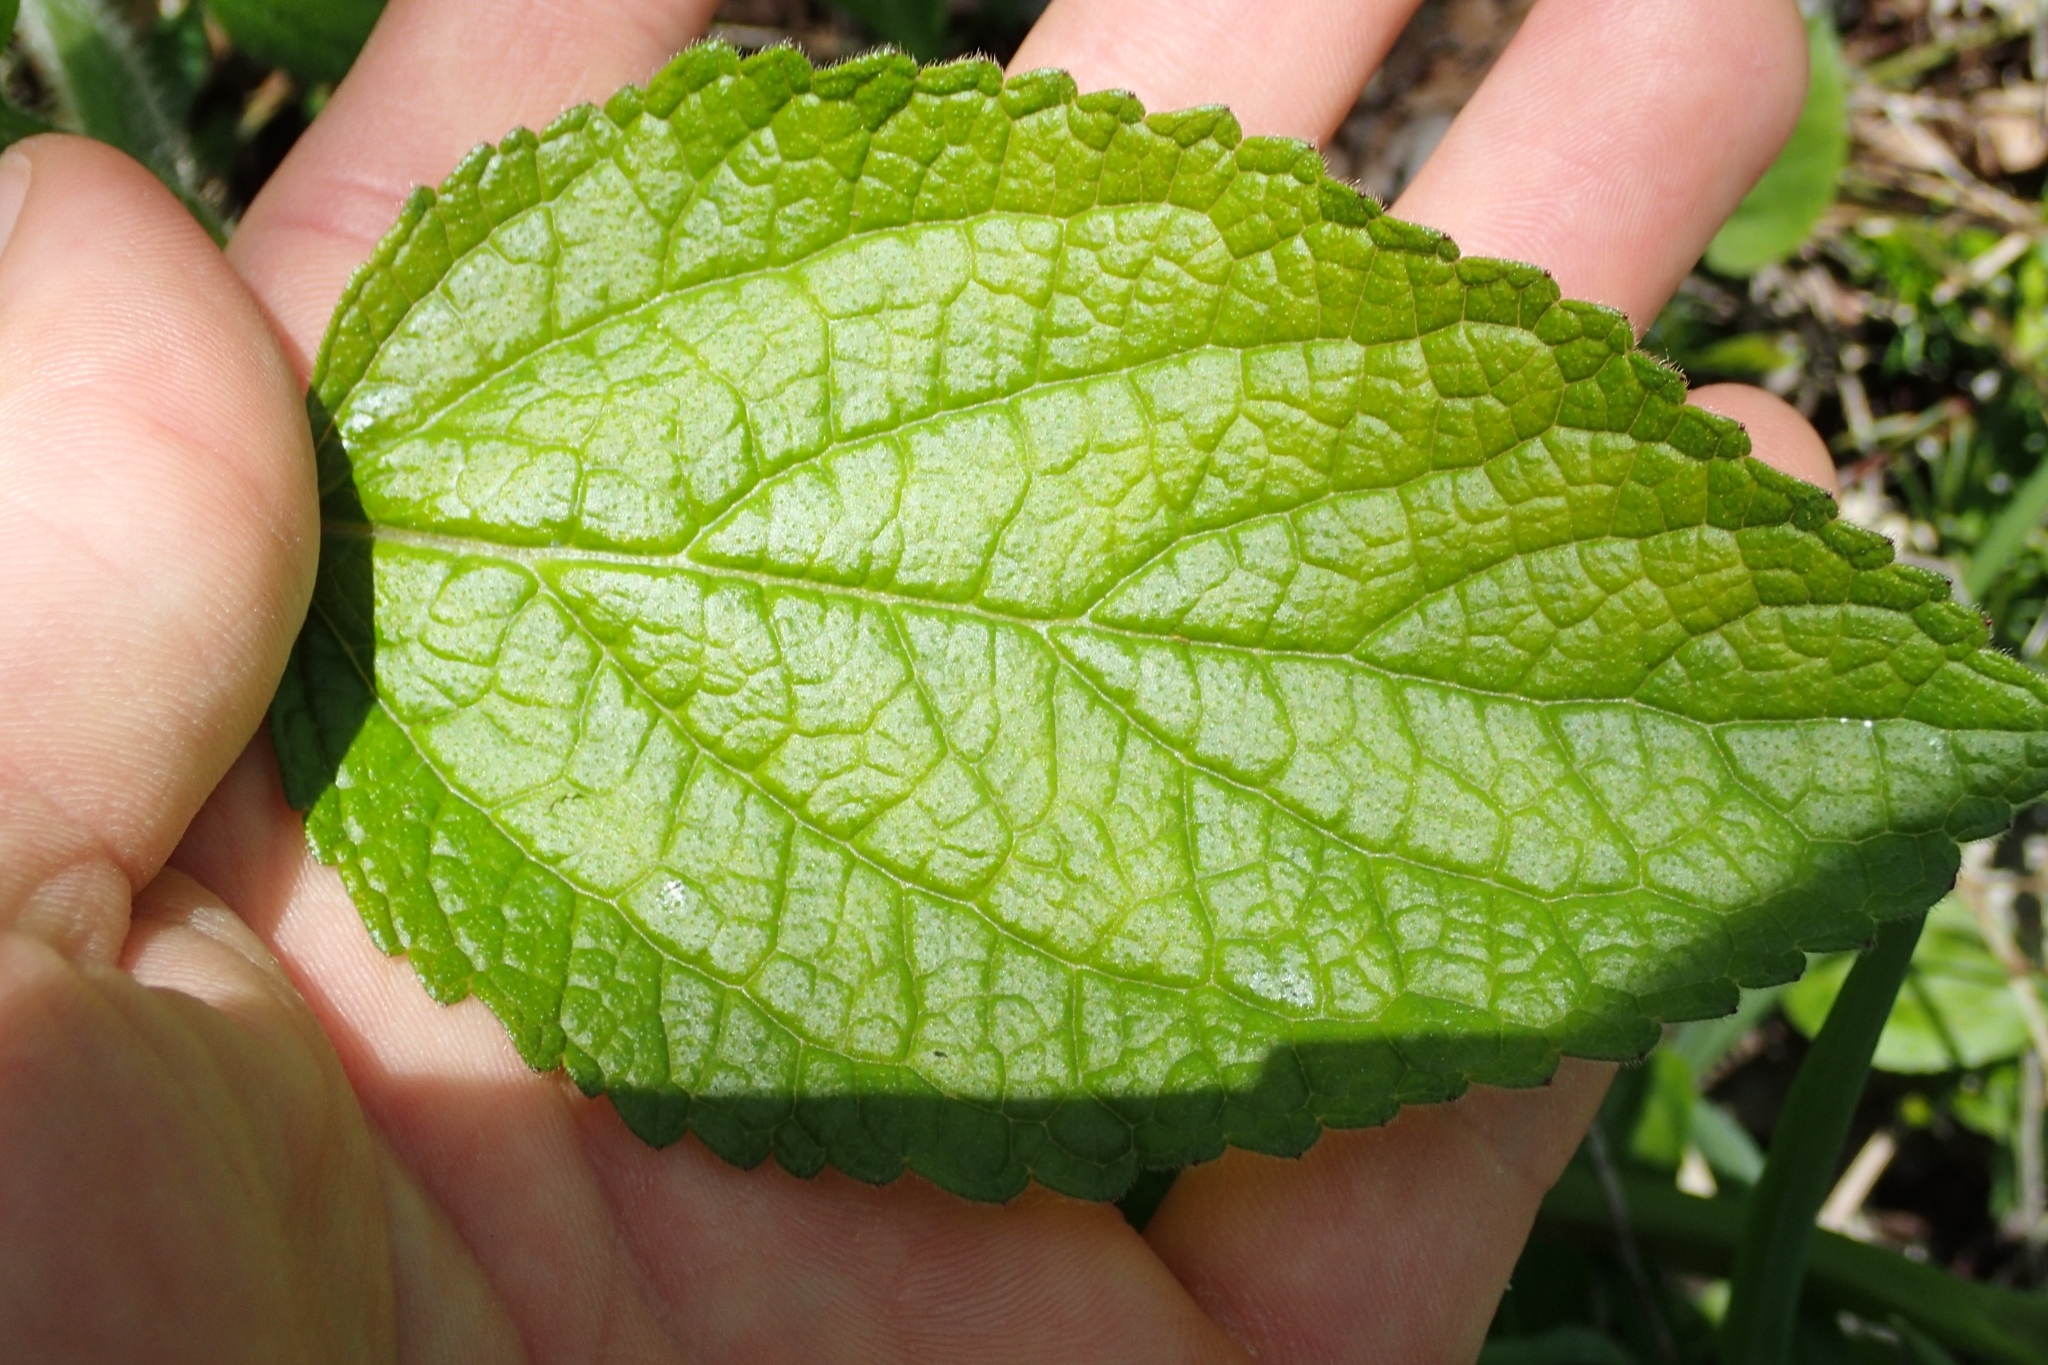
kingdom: Plantae
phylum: Tracheophyta
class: Magnoliopsida
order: Lamiales
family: Lamiaceae
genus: Melittis
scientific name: Melittis melissophyllum
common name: Bastard balm
